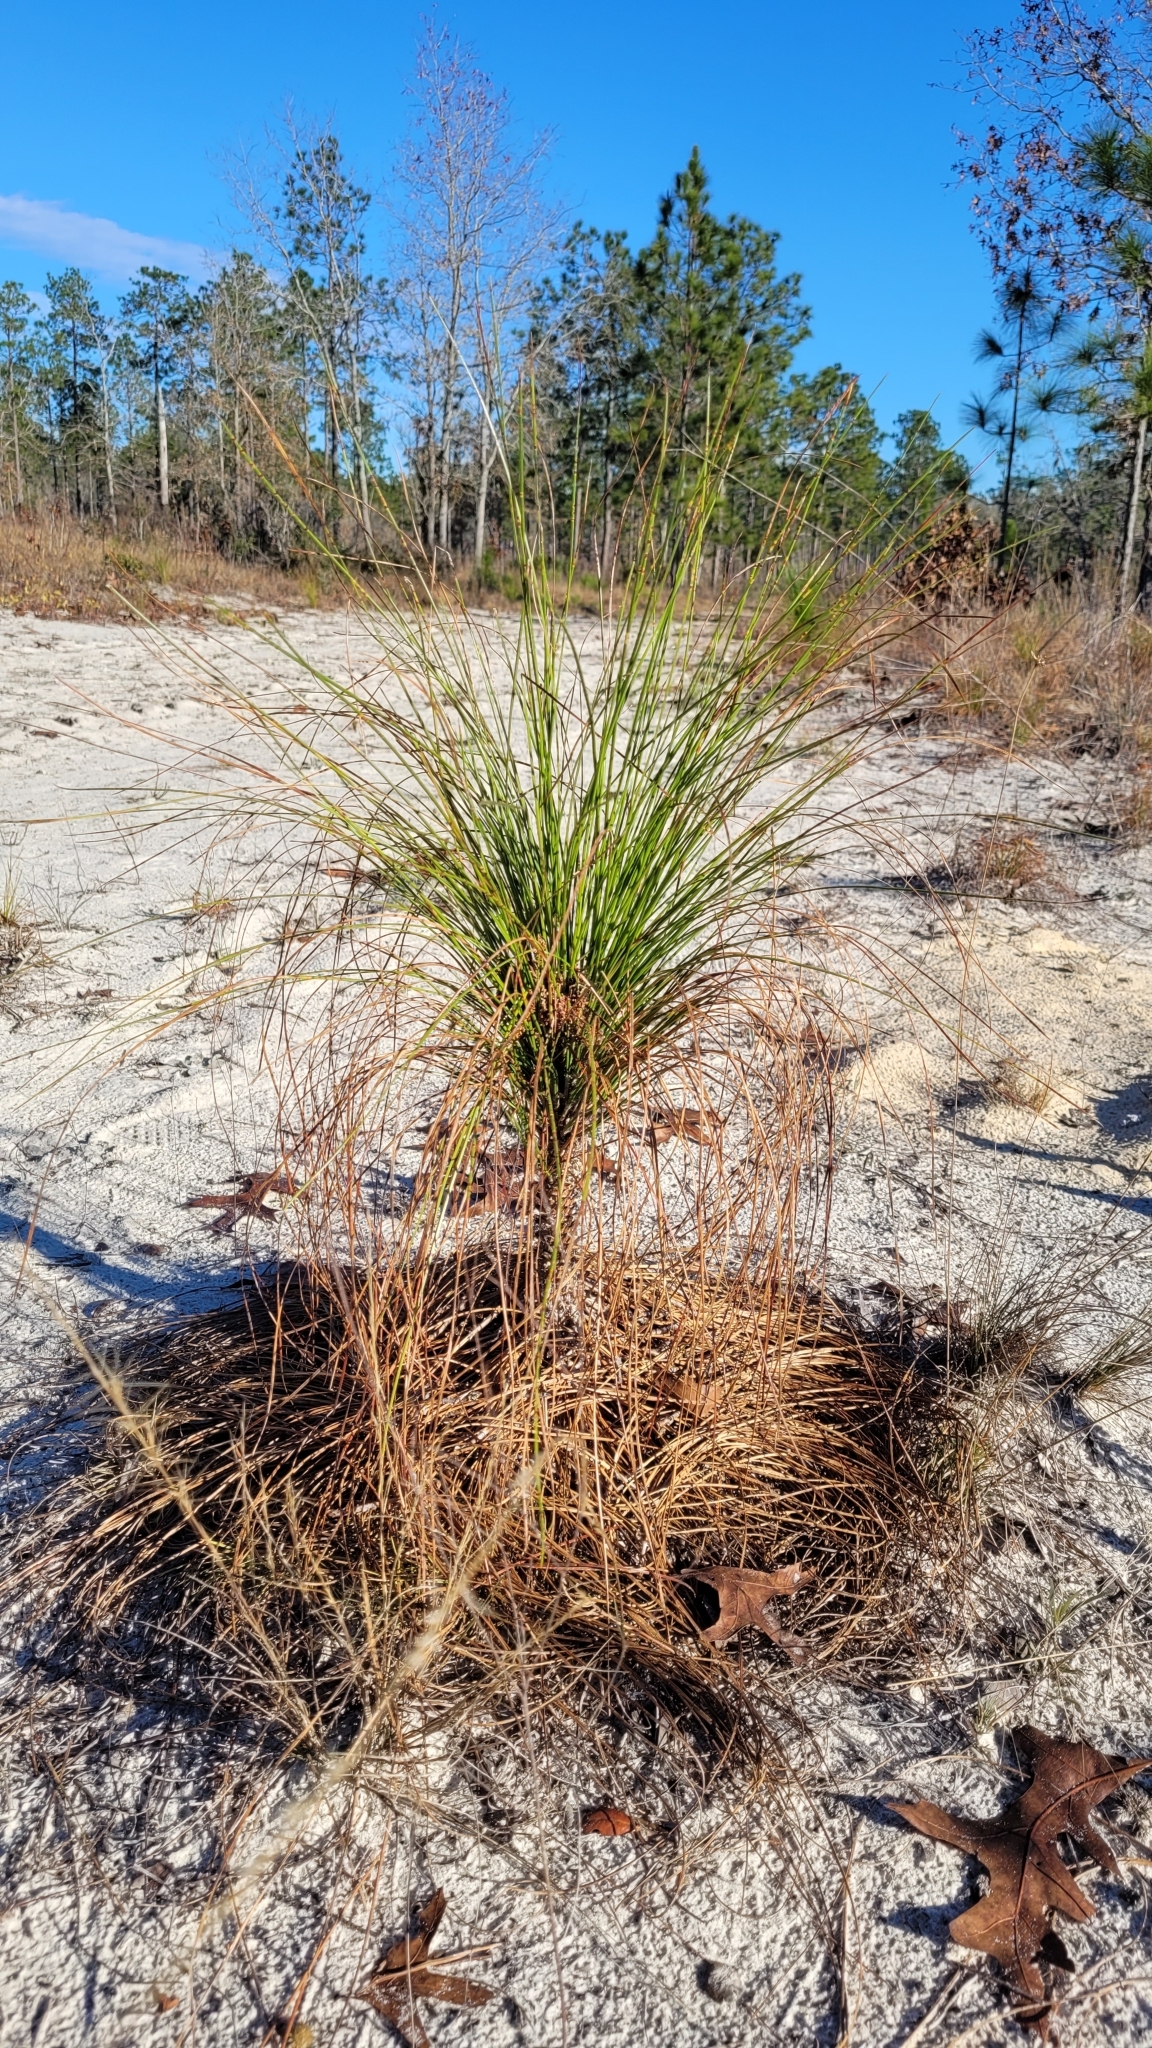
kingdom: Plantae
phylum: Tracheophyta
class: Pinopsida
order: Pinales
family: Pinaceae
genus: Pinus
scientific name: Pinus palustris
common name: Longleaf pine
